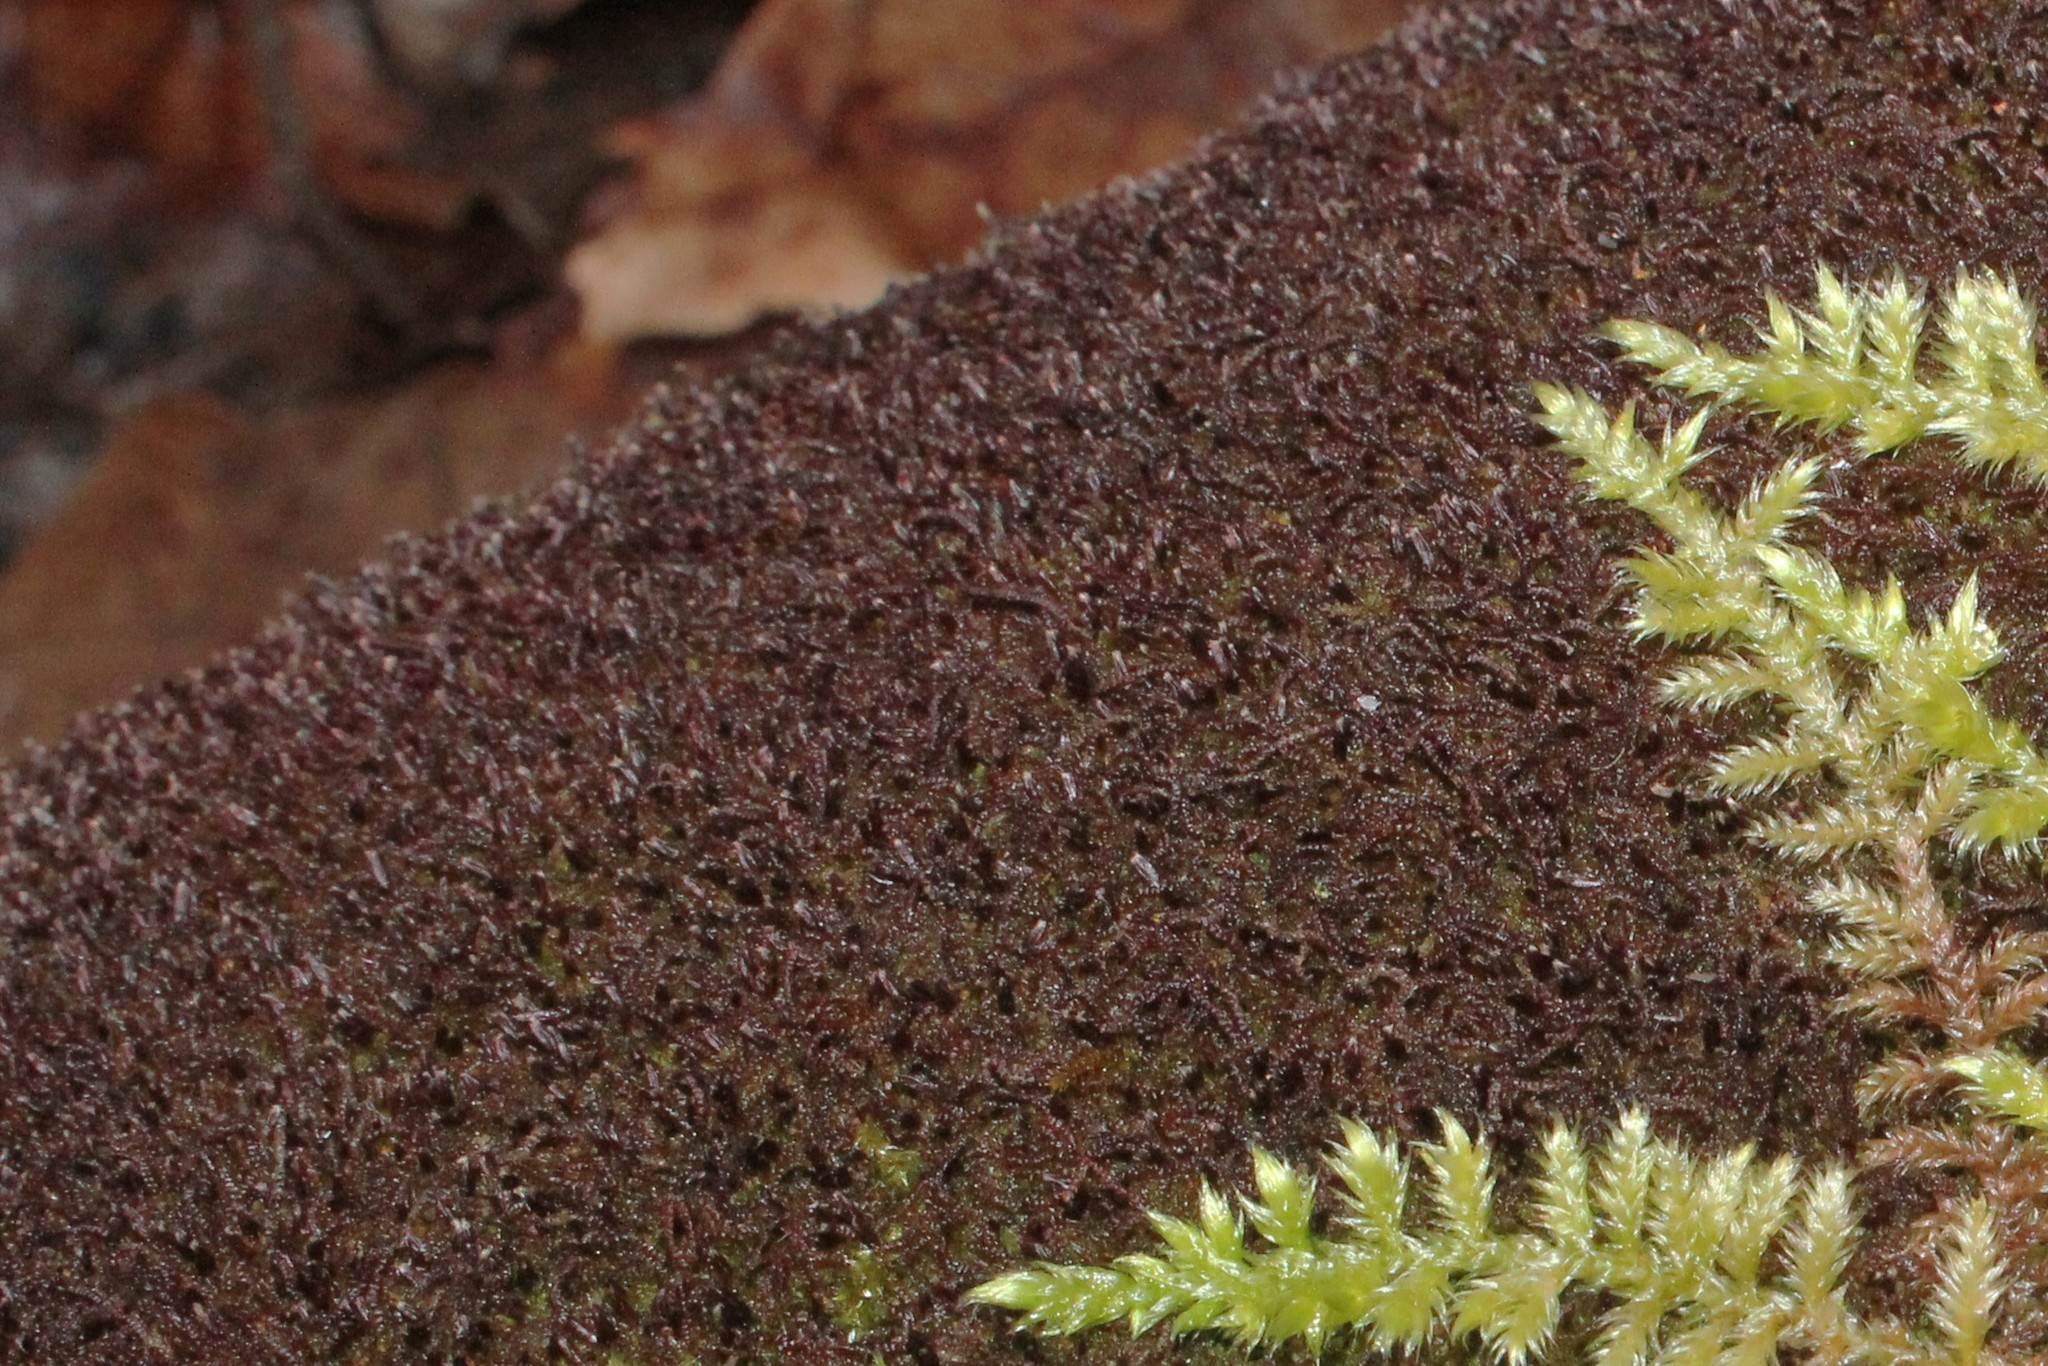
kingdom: Plantae
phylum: Marchantiophyta
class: Jungermanniopsida
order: Jungermanniales
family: Cephaloziaceae
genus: Nowellia
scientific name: Nowellia curvifolia
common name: Wood rustwort
